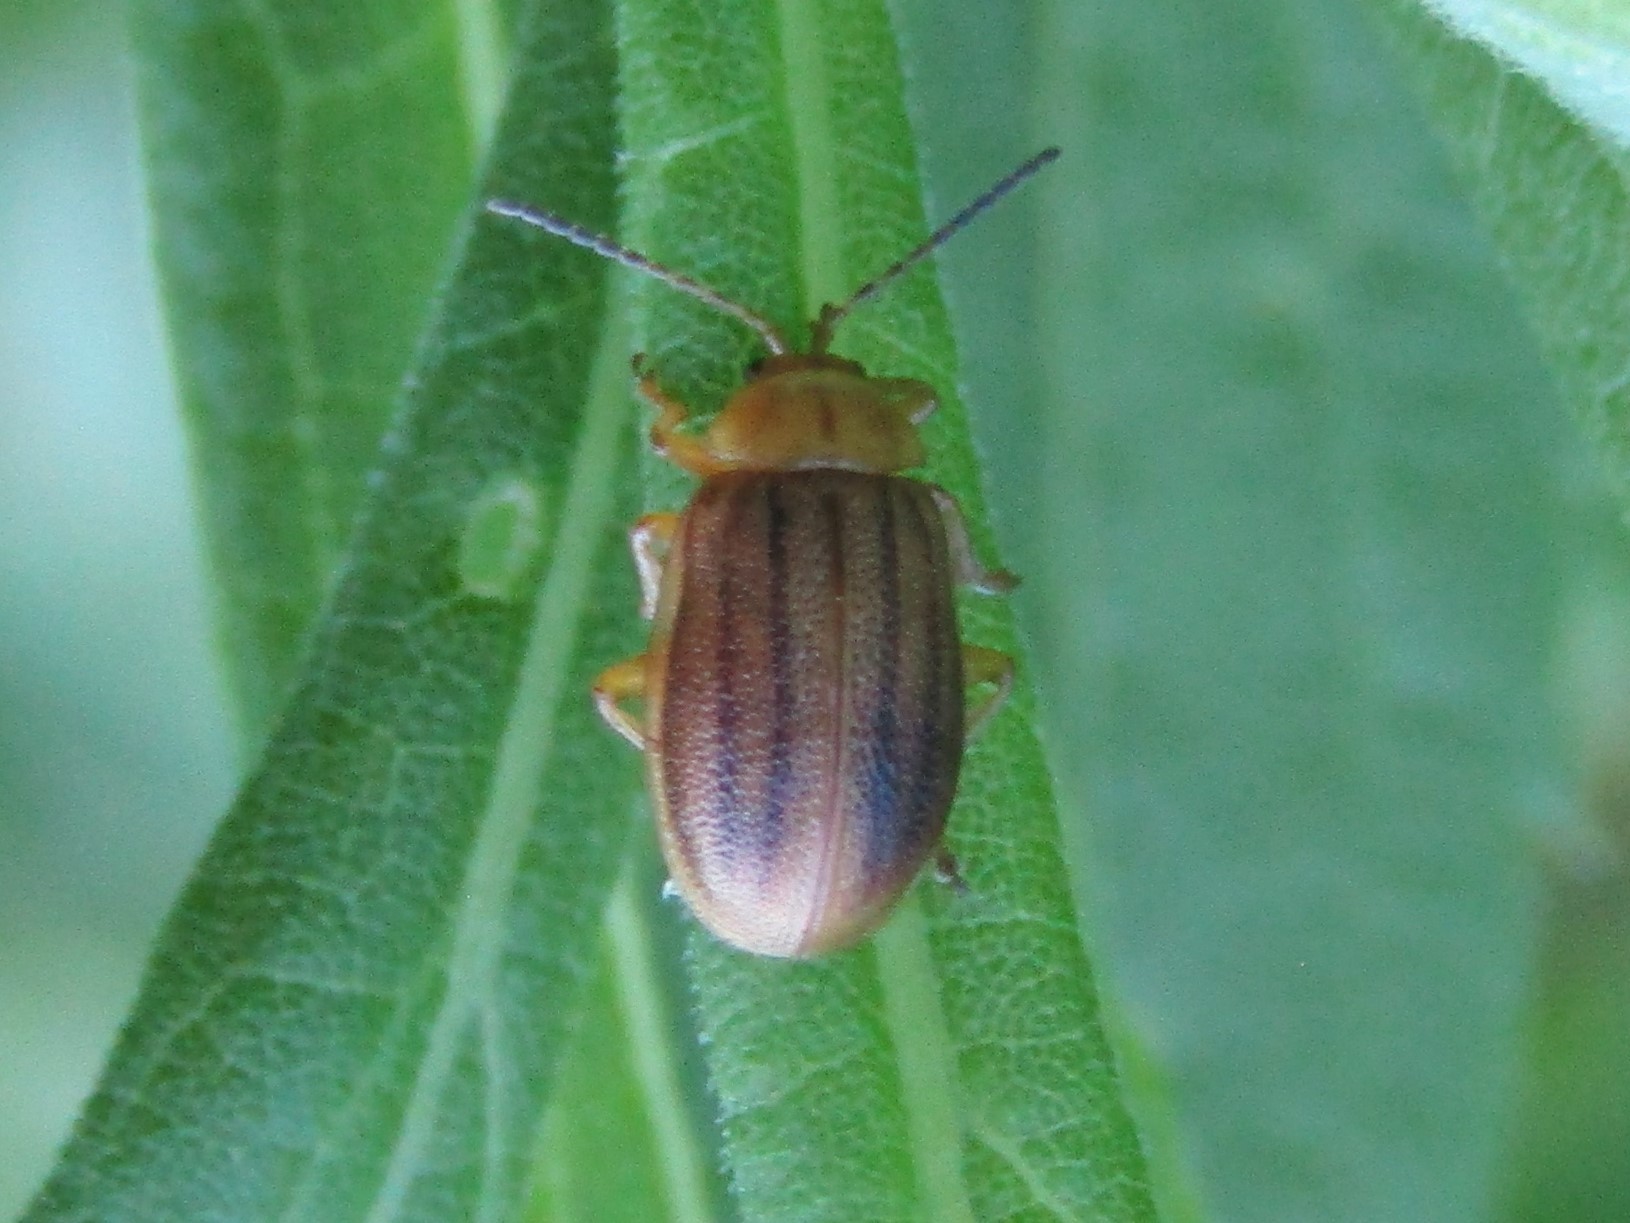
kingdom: Animalia
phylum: Arthropoda
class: Insecta
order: Coleoptera
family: Chrysomelidae
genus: Ophraella
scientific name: Ophraella cribrata
